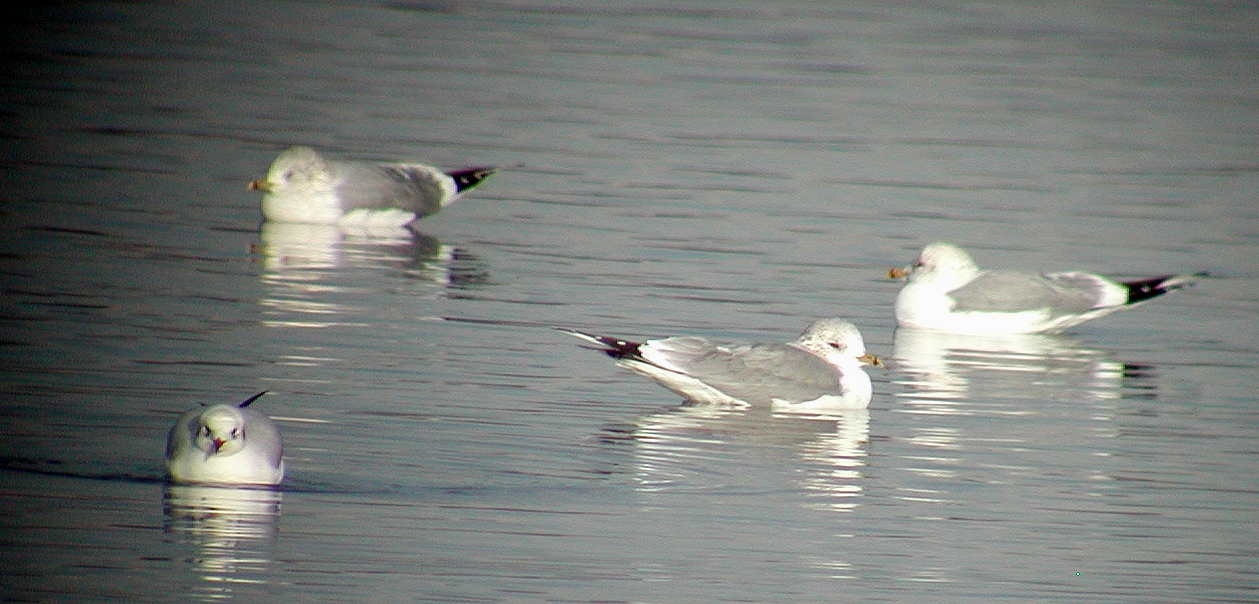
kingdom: Animalia
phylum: Chordata
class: Aves
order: Charadriiformes
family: Laridae
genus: Larus
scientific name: Larus canus
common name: Mew gull
